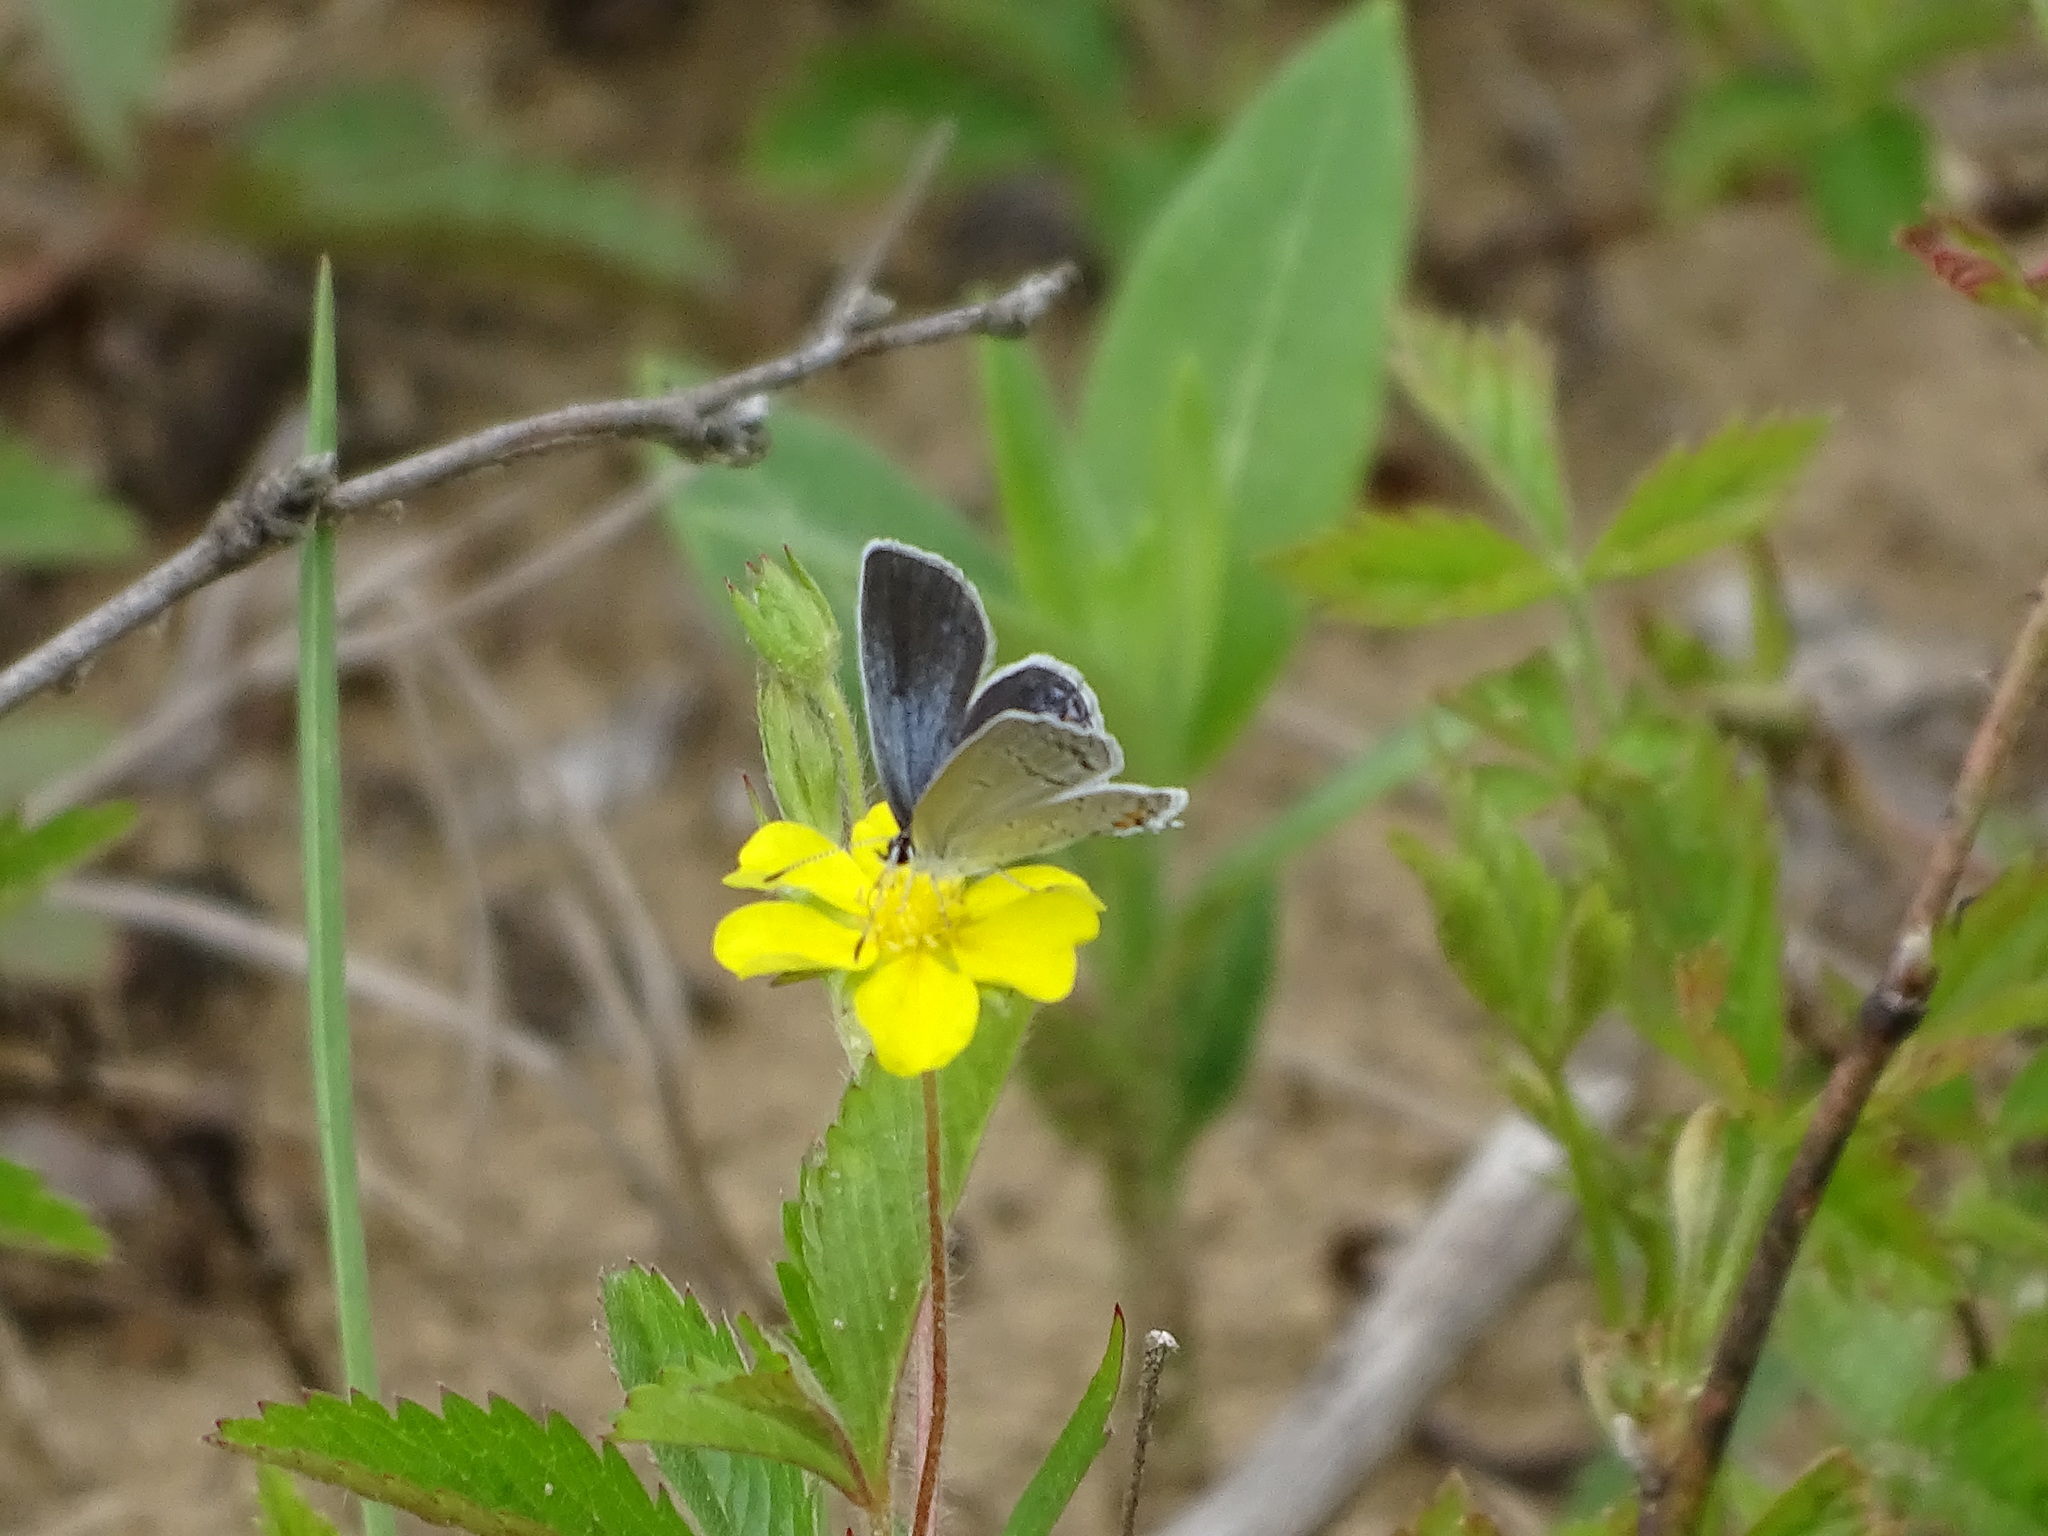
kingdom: Animalia
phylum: Arthropoda
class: Insecta
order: Lepidoptera
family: Lycaenidae
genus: Elkalyce
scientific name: Elkalyce comyntas
